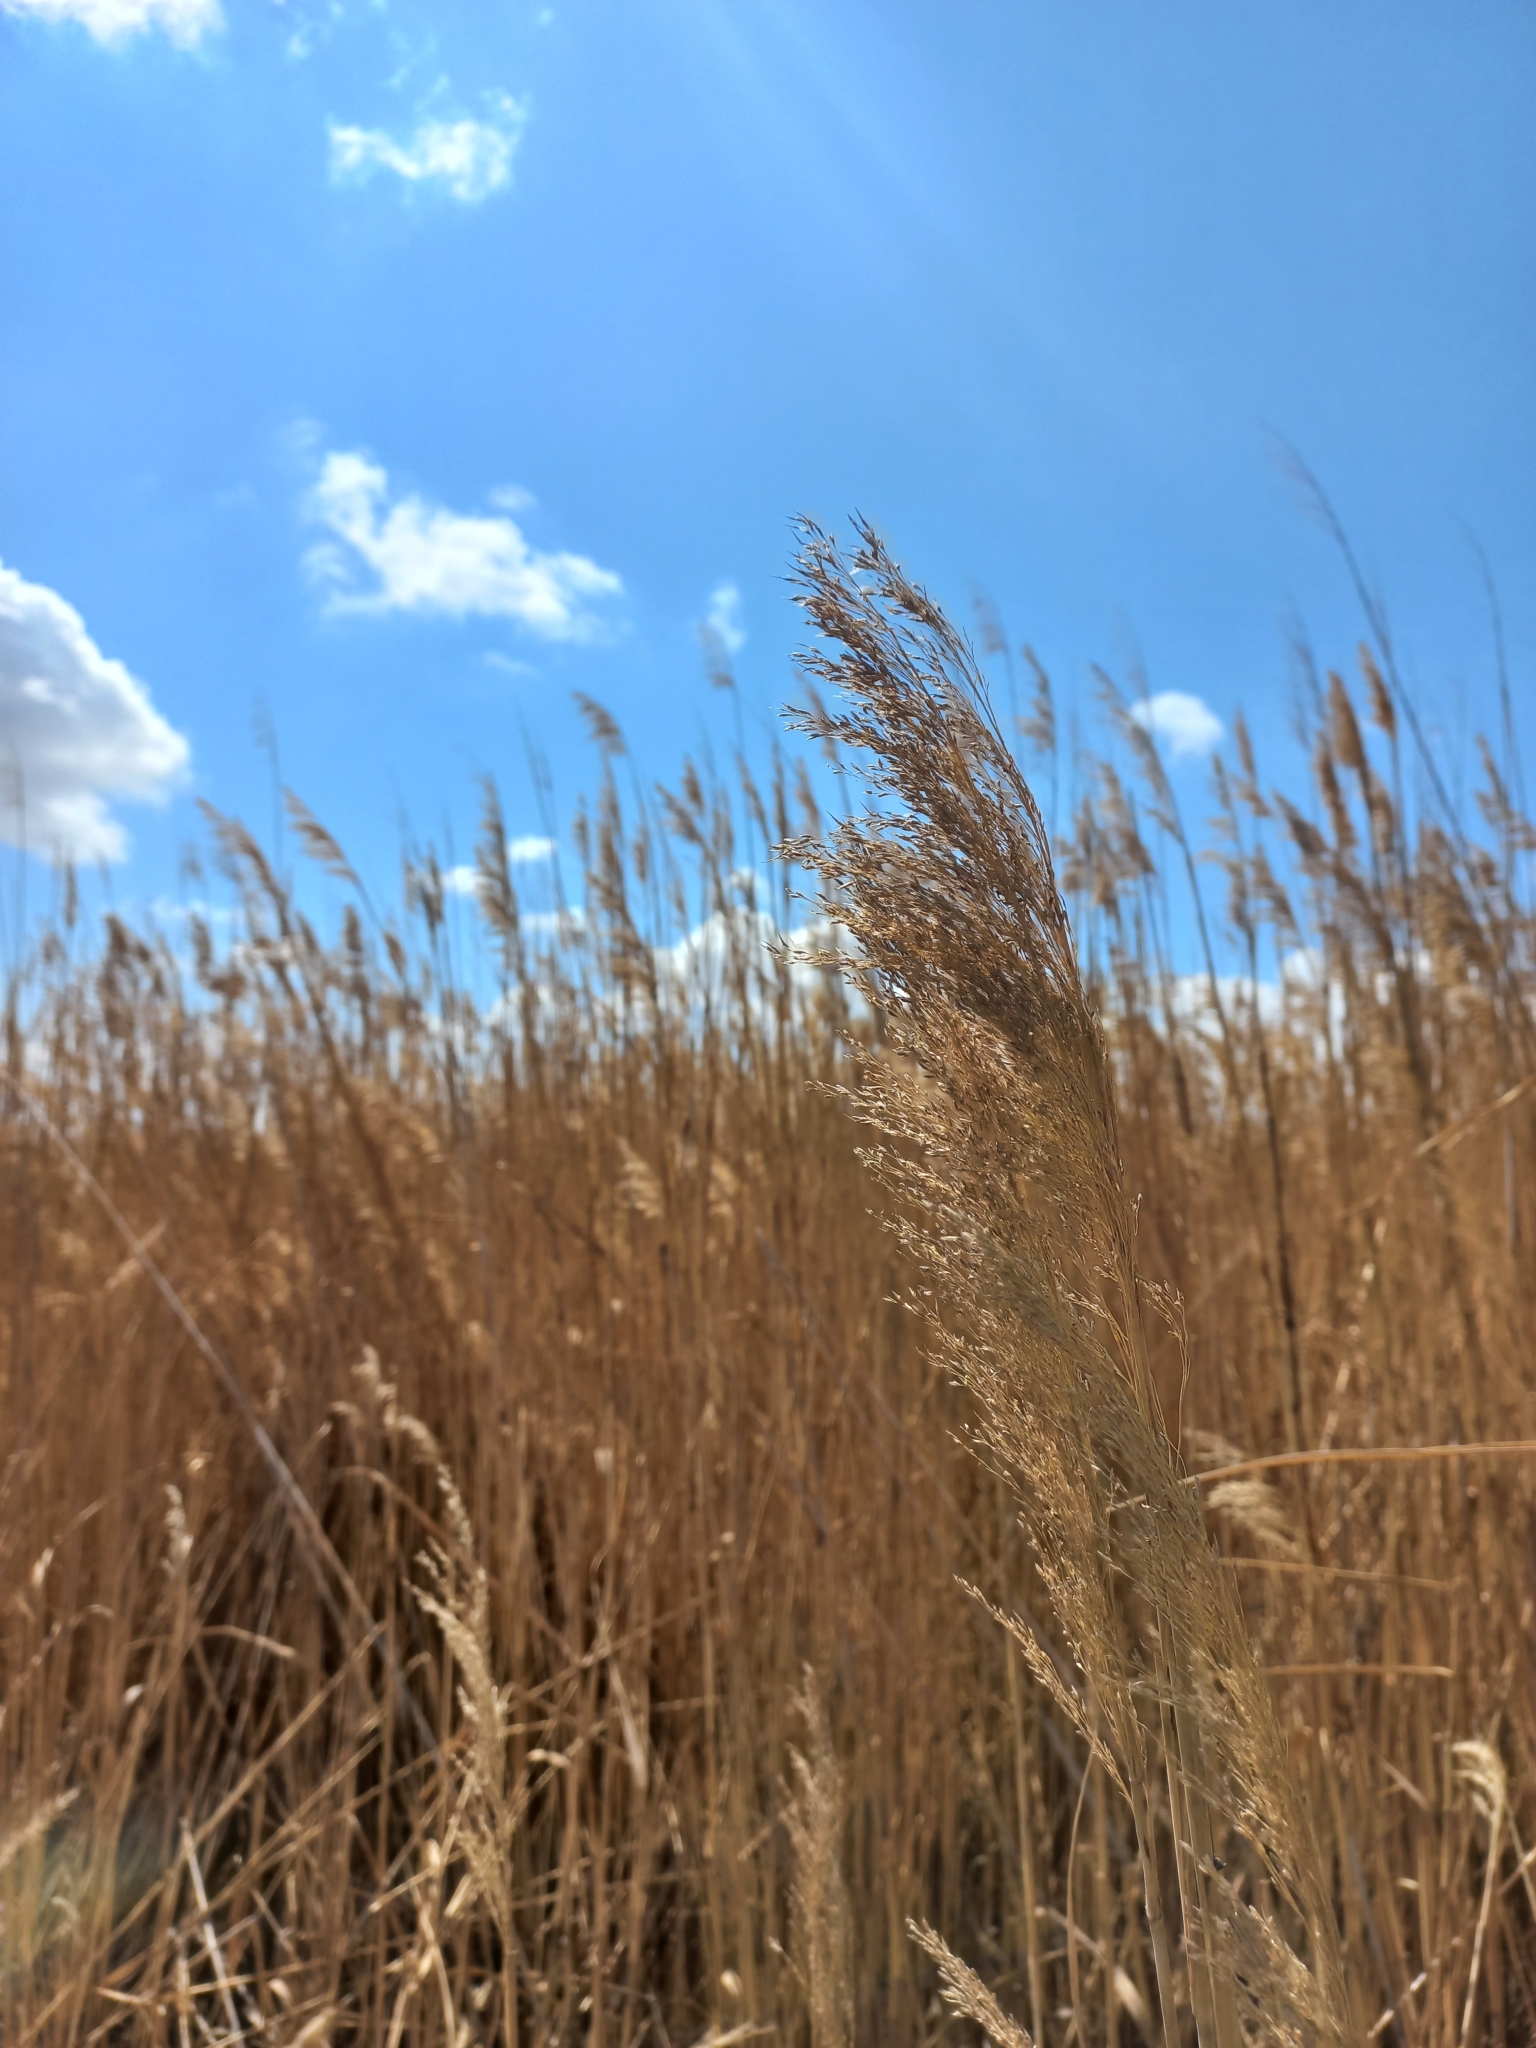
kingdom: Plantae
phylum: Tracheophyta
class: Liliopsida
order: Poales
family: Poaceae
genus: Phragmites
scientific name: Phragmites australis
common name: Common reed
